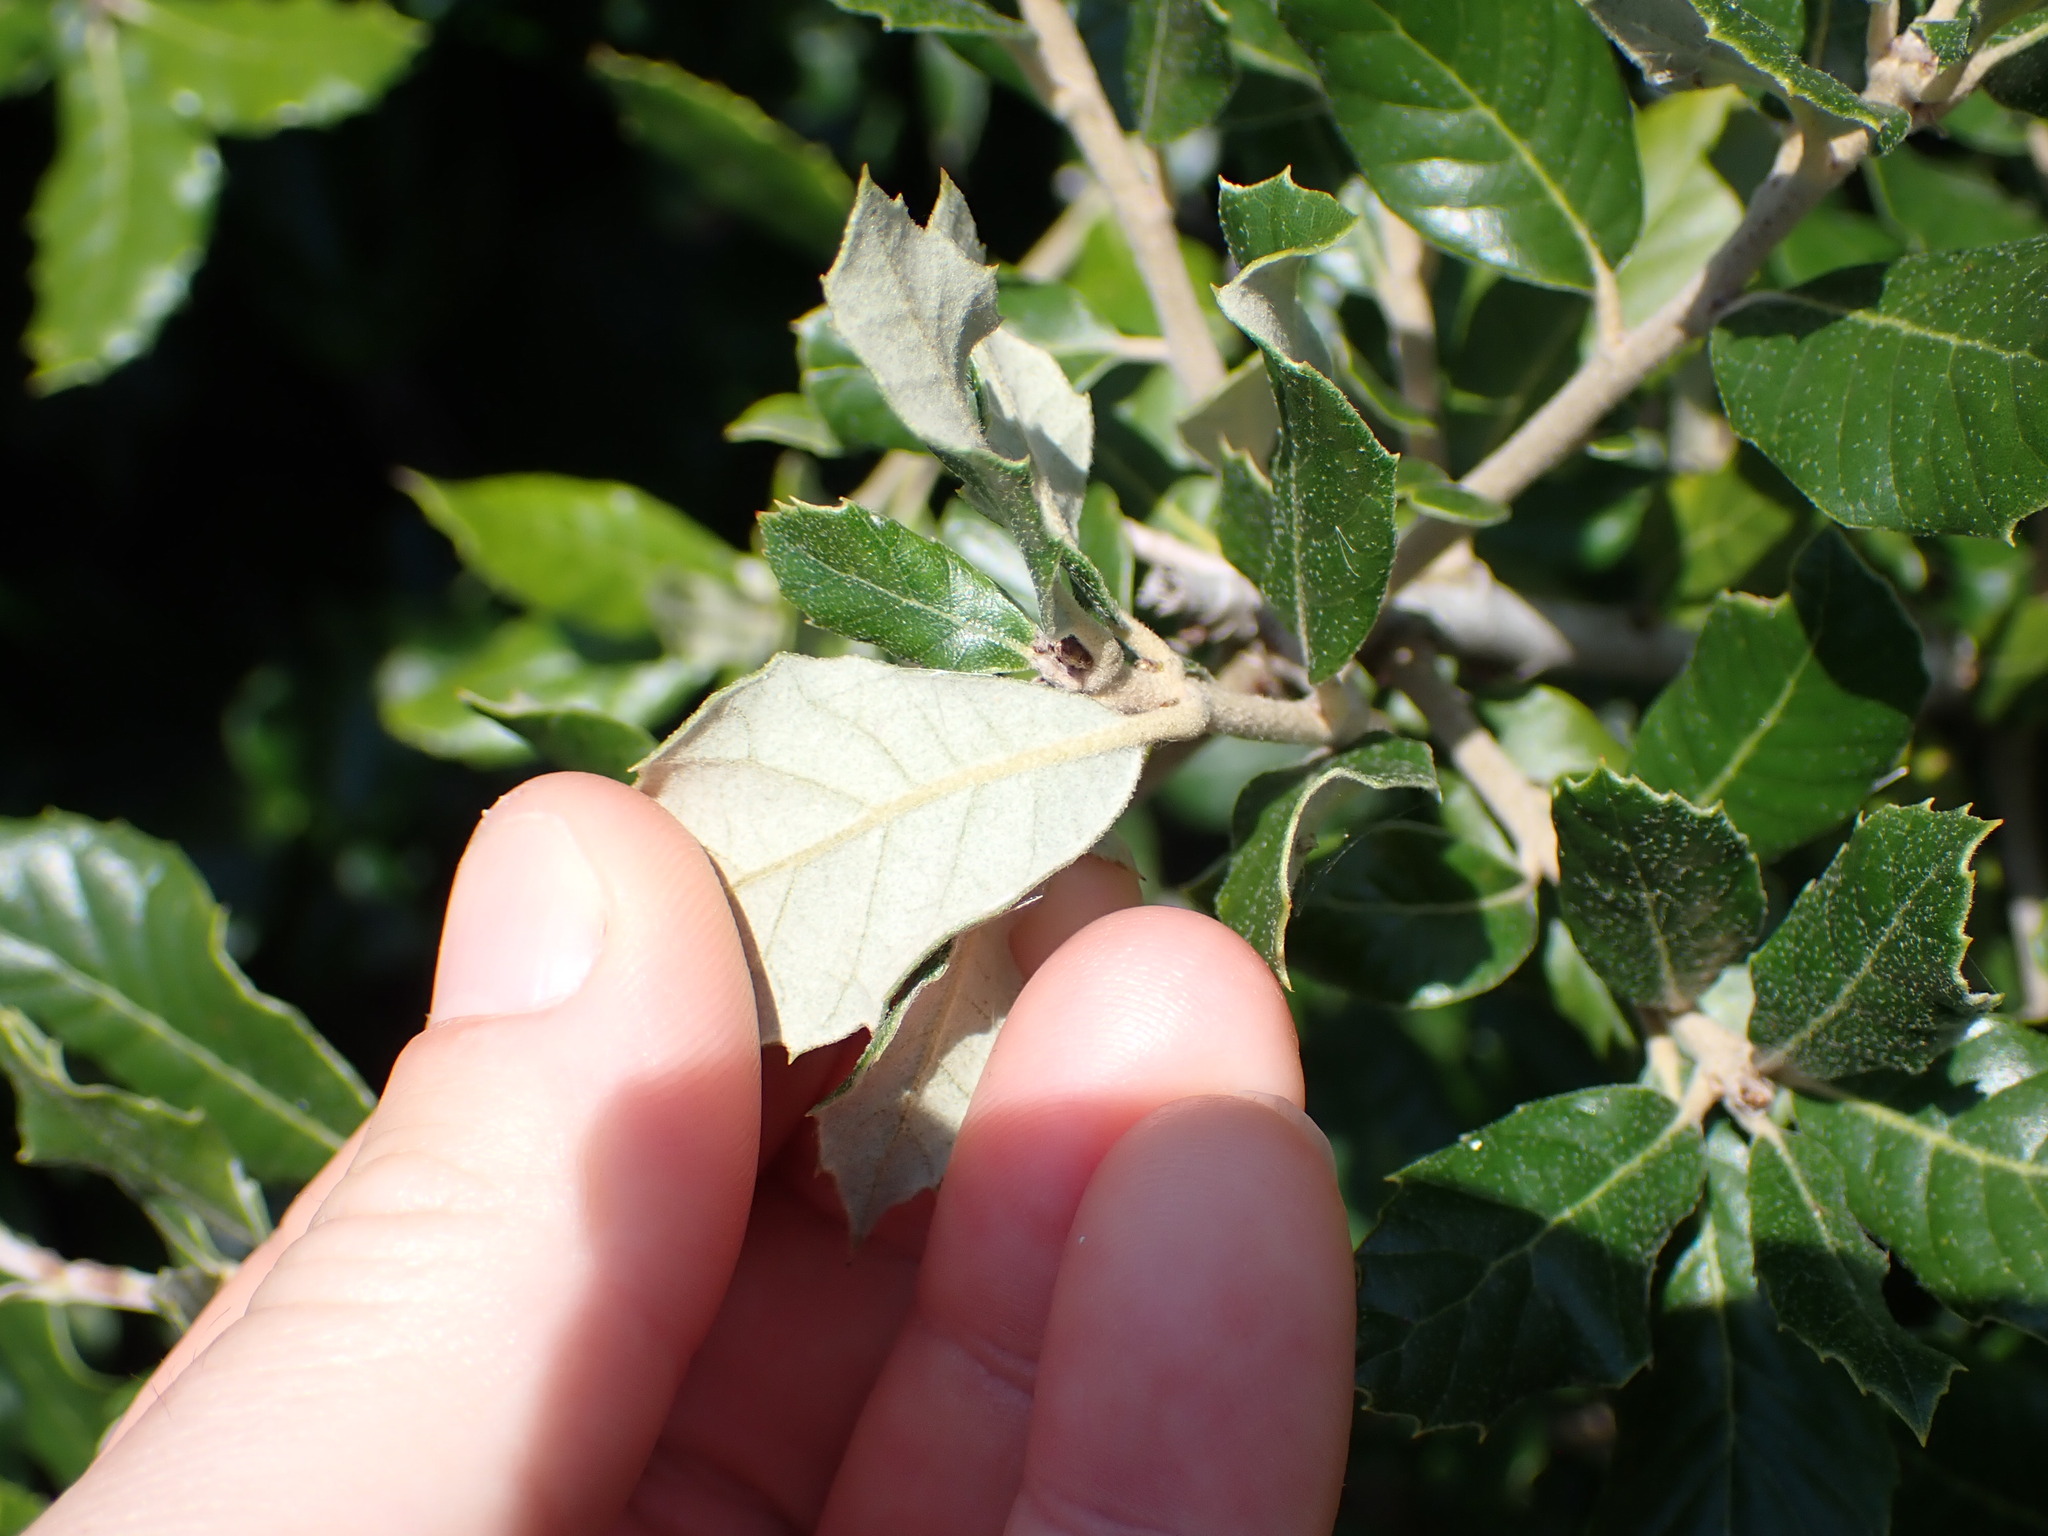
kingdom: Plantae
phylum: Tracheophyta
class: Magnoliopsida
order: Fagales
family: Fagaceae
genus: Quercus
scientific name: Quercus ilex
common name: Evergreen oak
